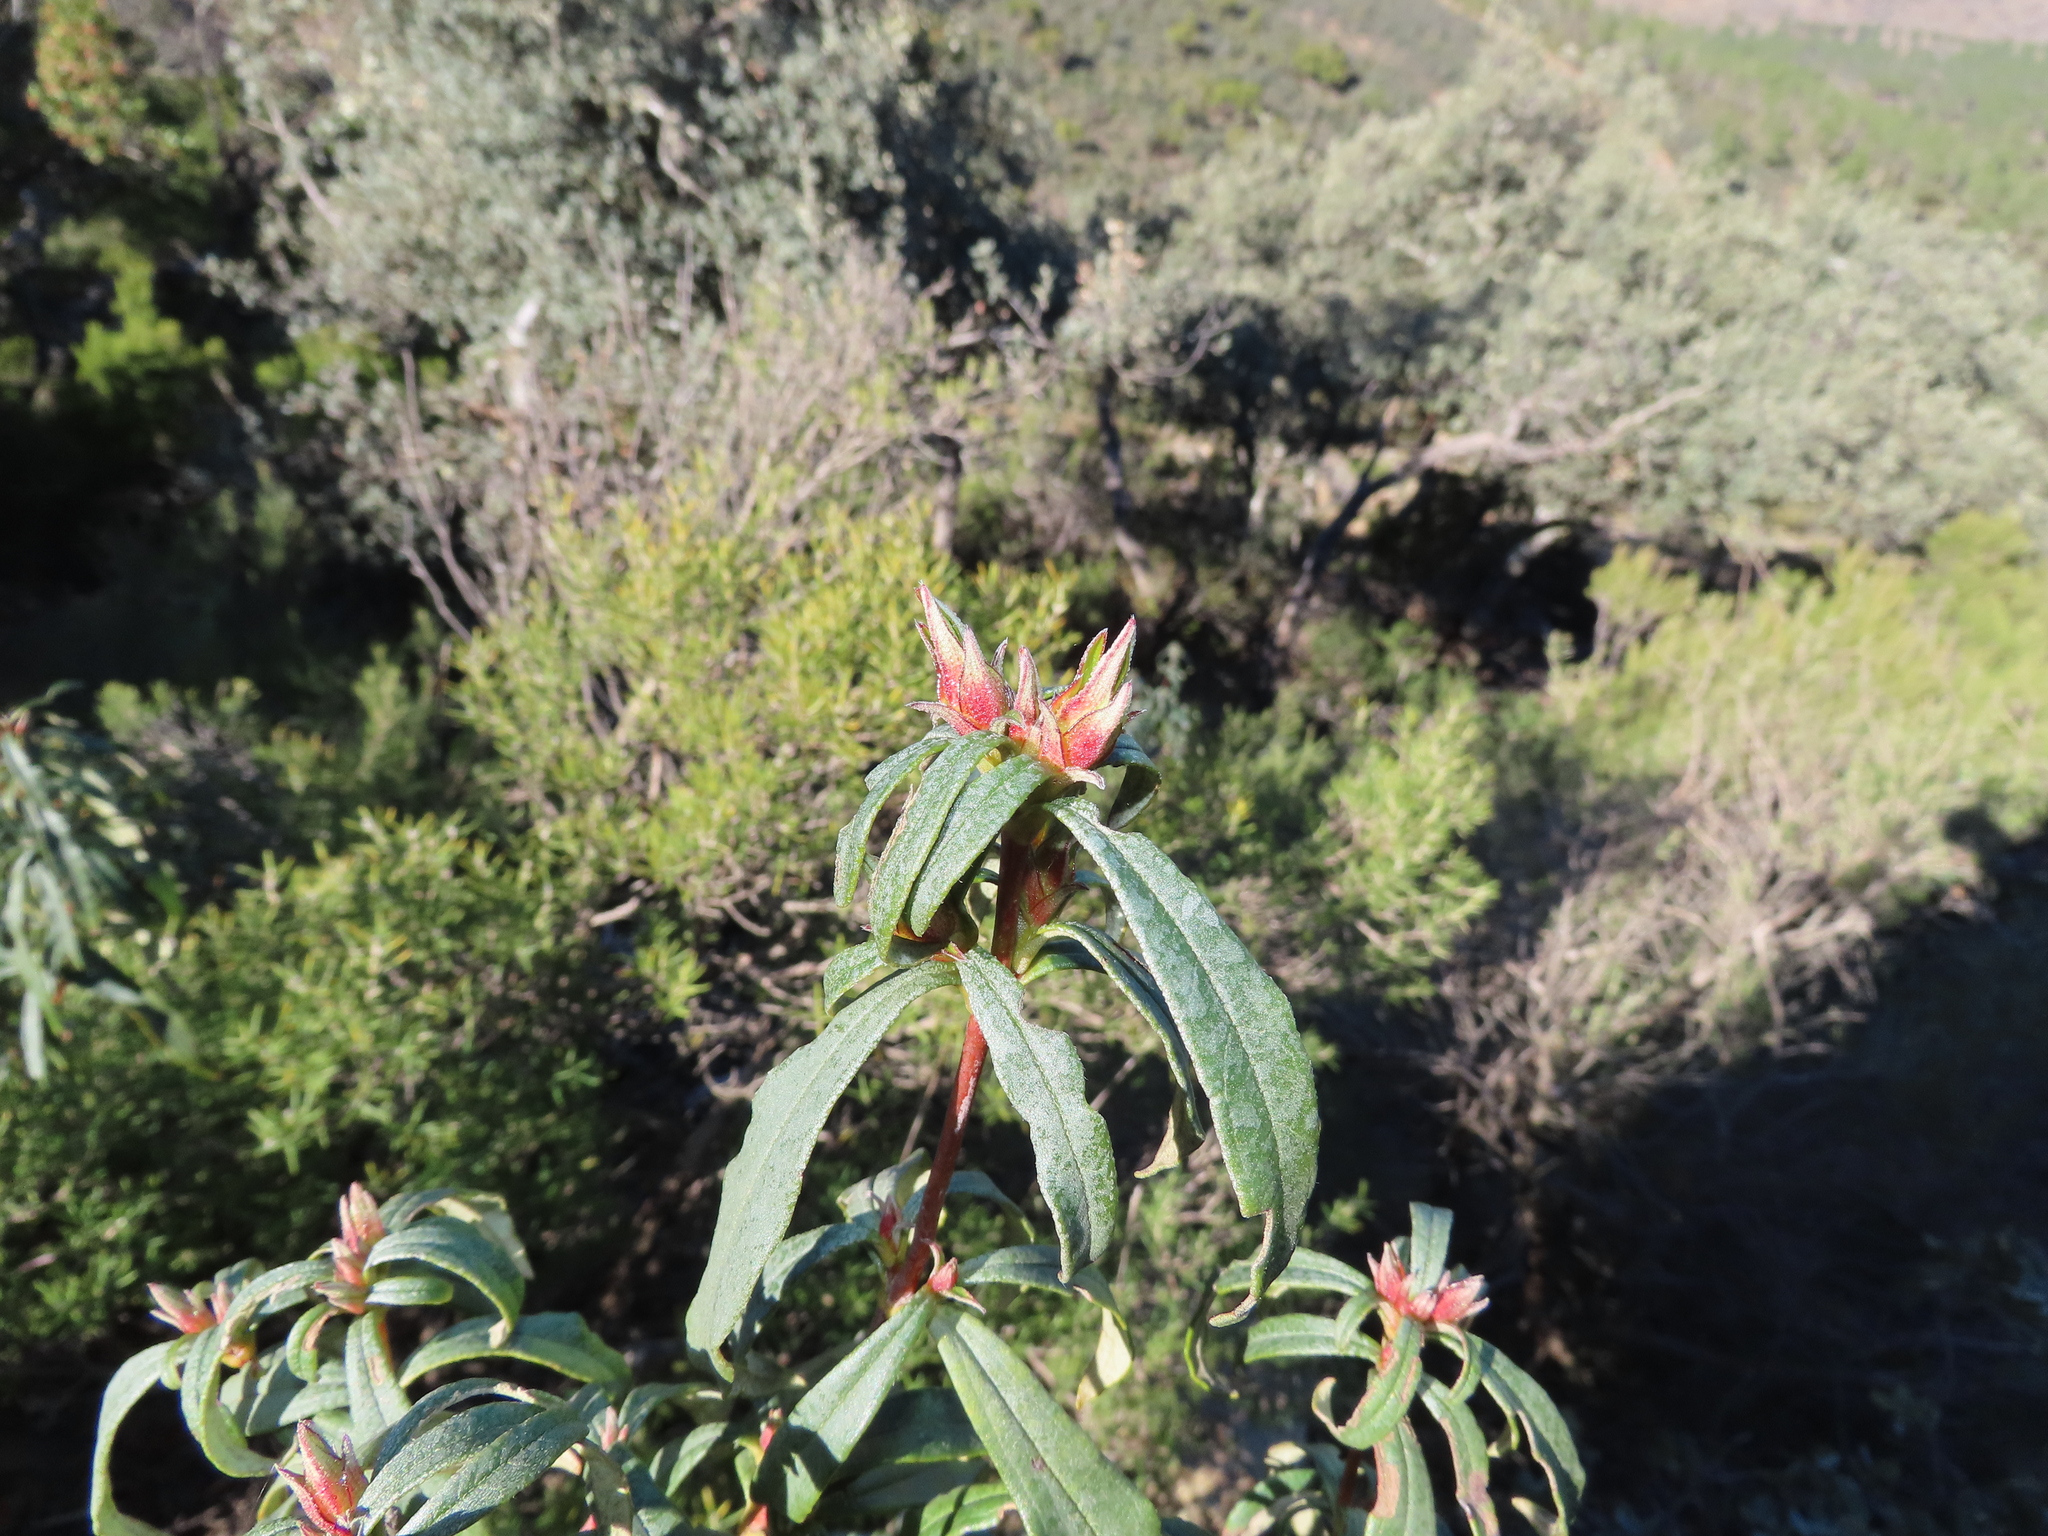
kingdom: Plantae
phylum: Tracheophyta
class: Magnoliopsida
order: Malvales
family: Cistaceae
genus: Cistus
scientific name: Cistus ladanifer
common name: Common gum cistus
